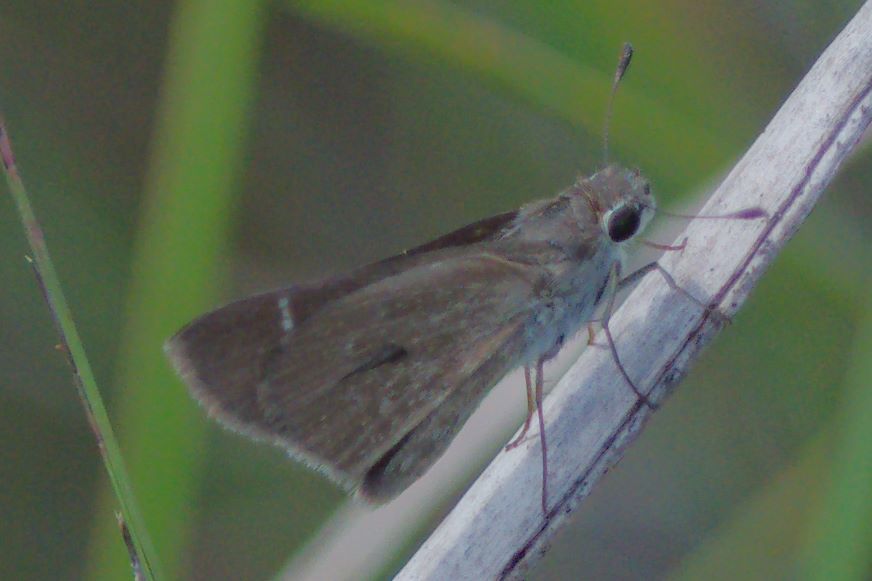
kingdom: Animalia
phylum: Arthropoda
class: Insecta
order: Lepidoptera
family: Hesperiidae
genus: Lerodea
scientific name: Lerodea eufala
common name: Eufala skipper
